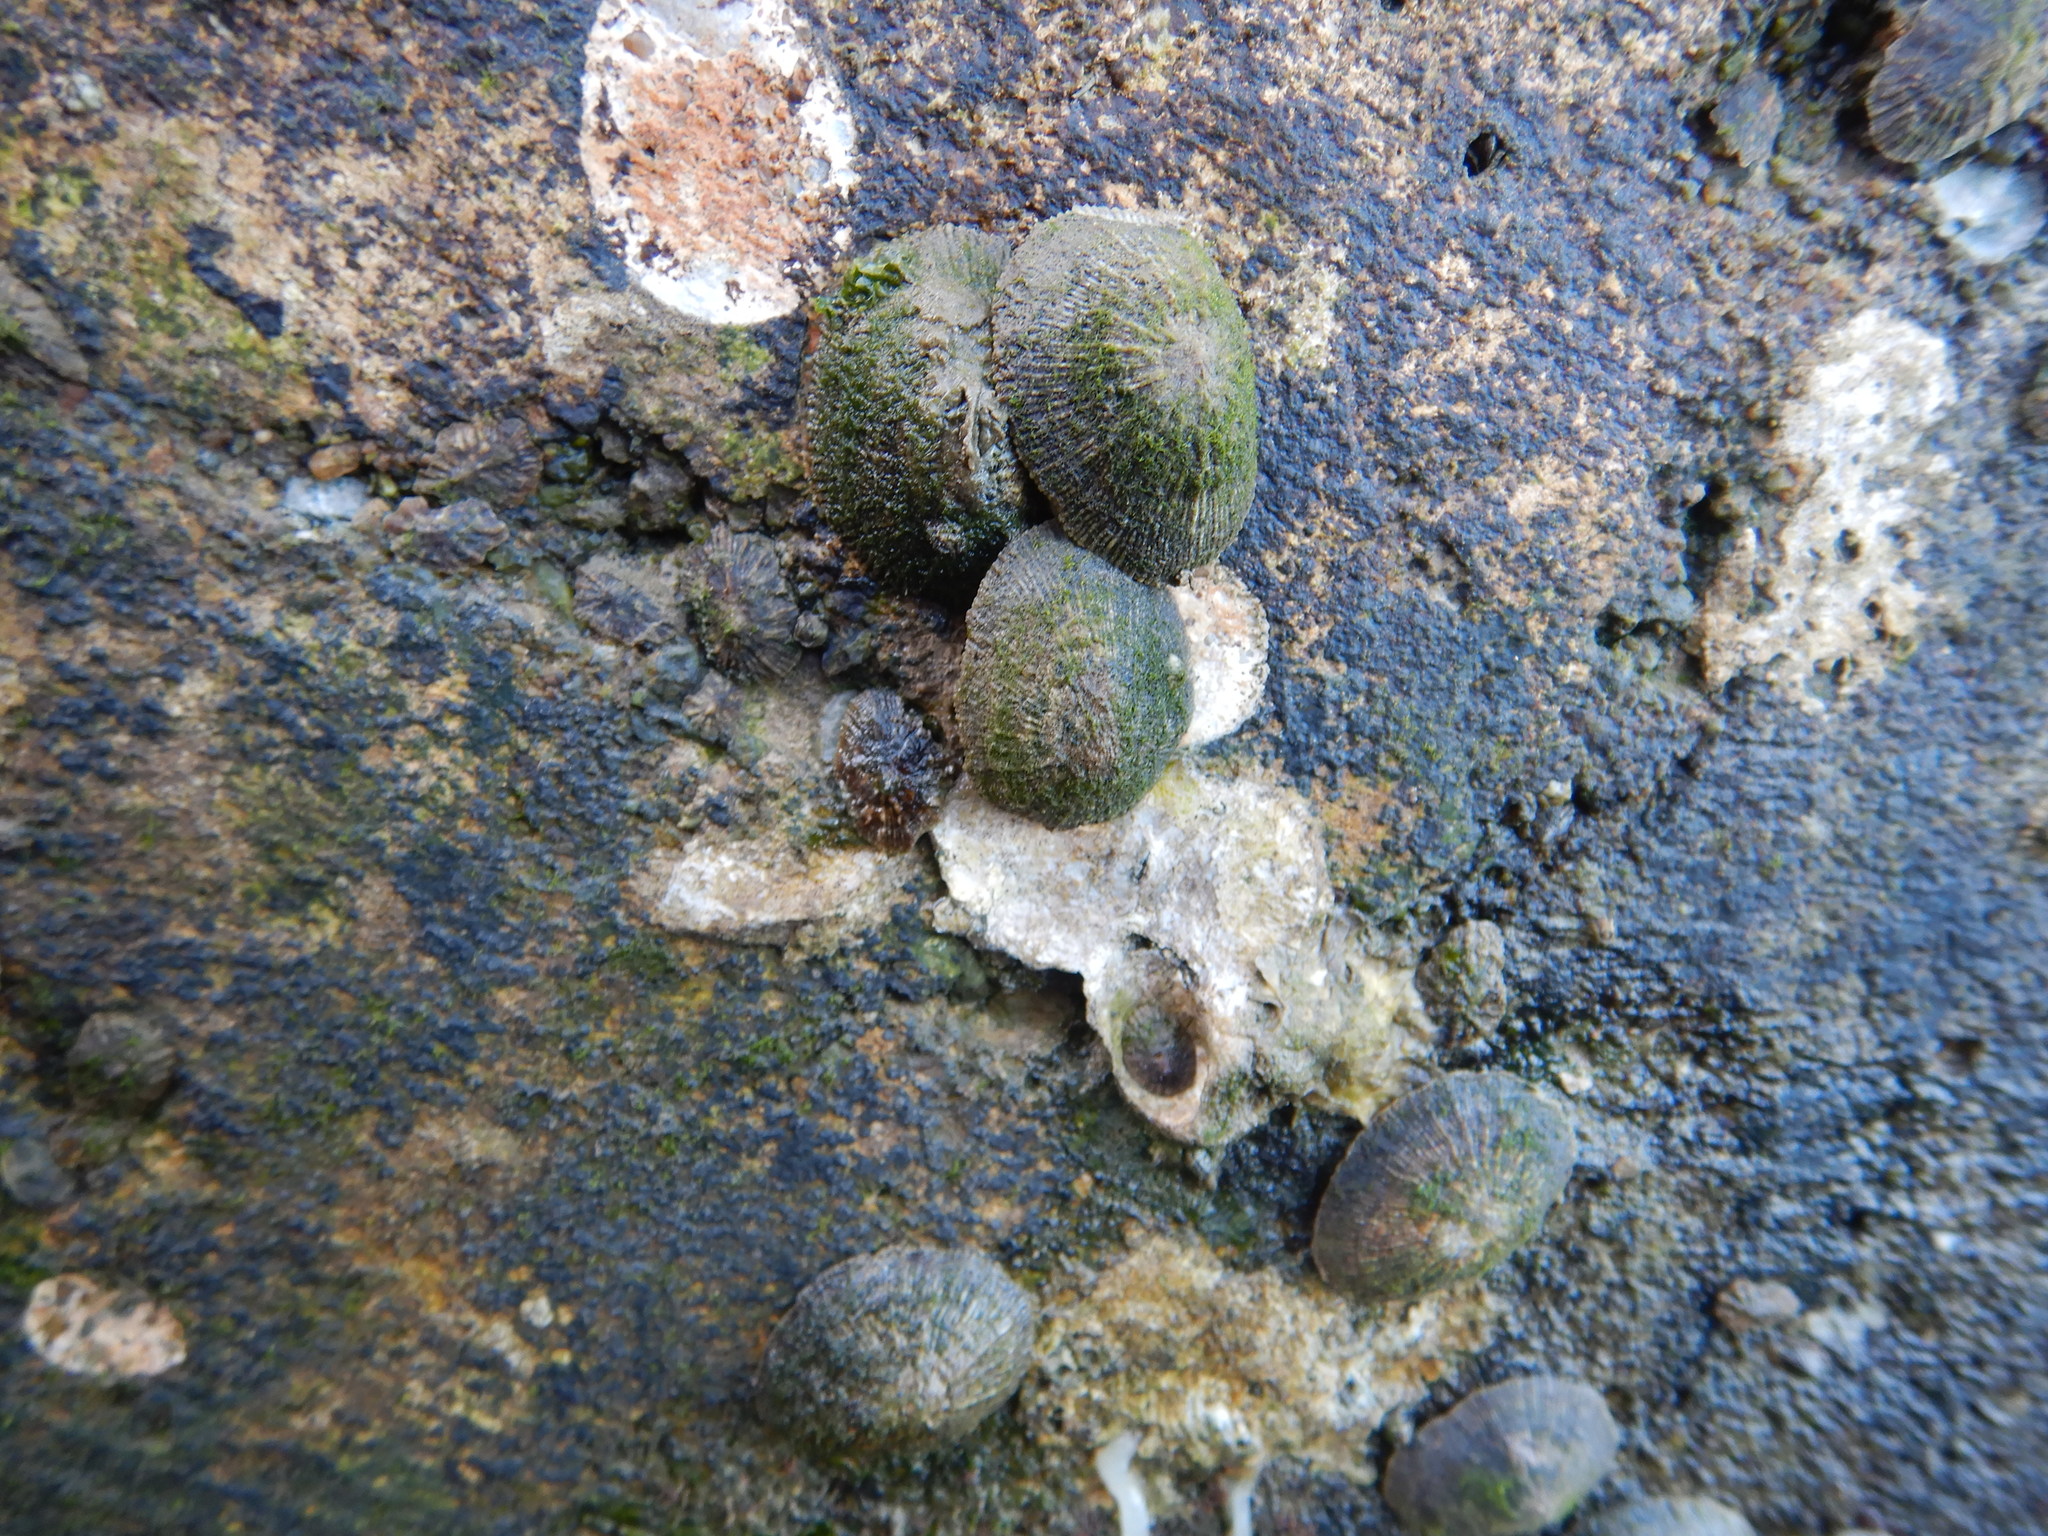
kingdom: Animalia
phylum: Mollusca
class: Gastropoda
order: Siphonariida
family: Siphonariidae
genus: Siphonaria
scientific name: Siphonaria pectinata
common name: Striped false limpet
